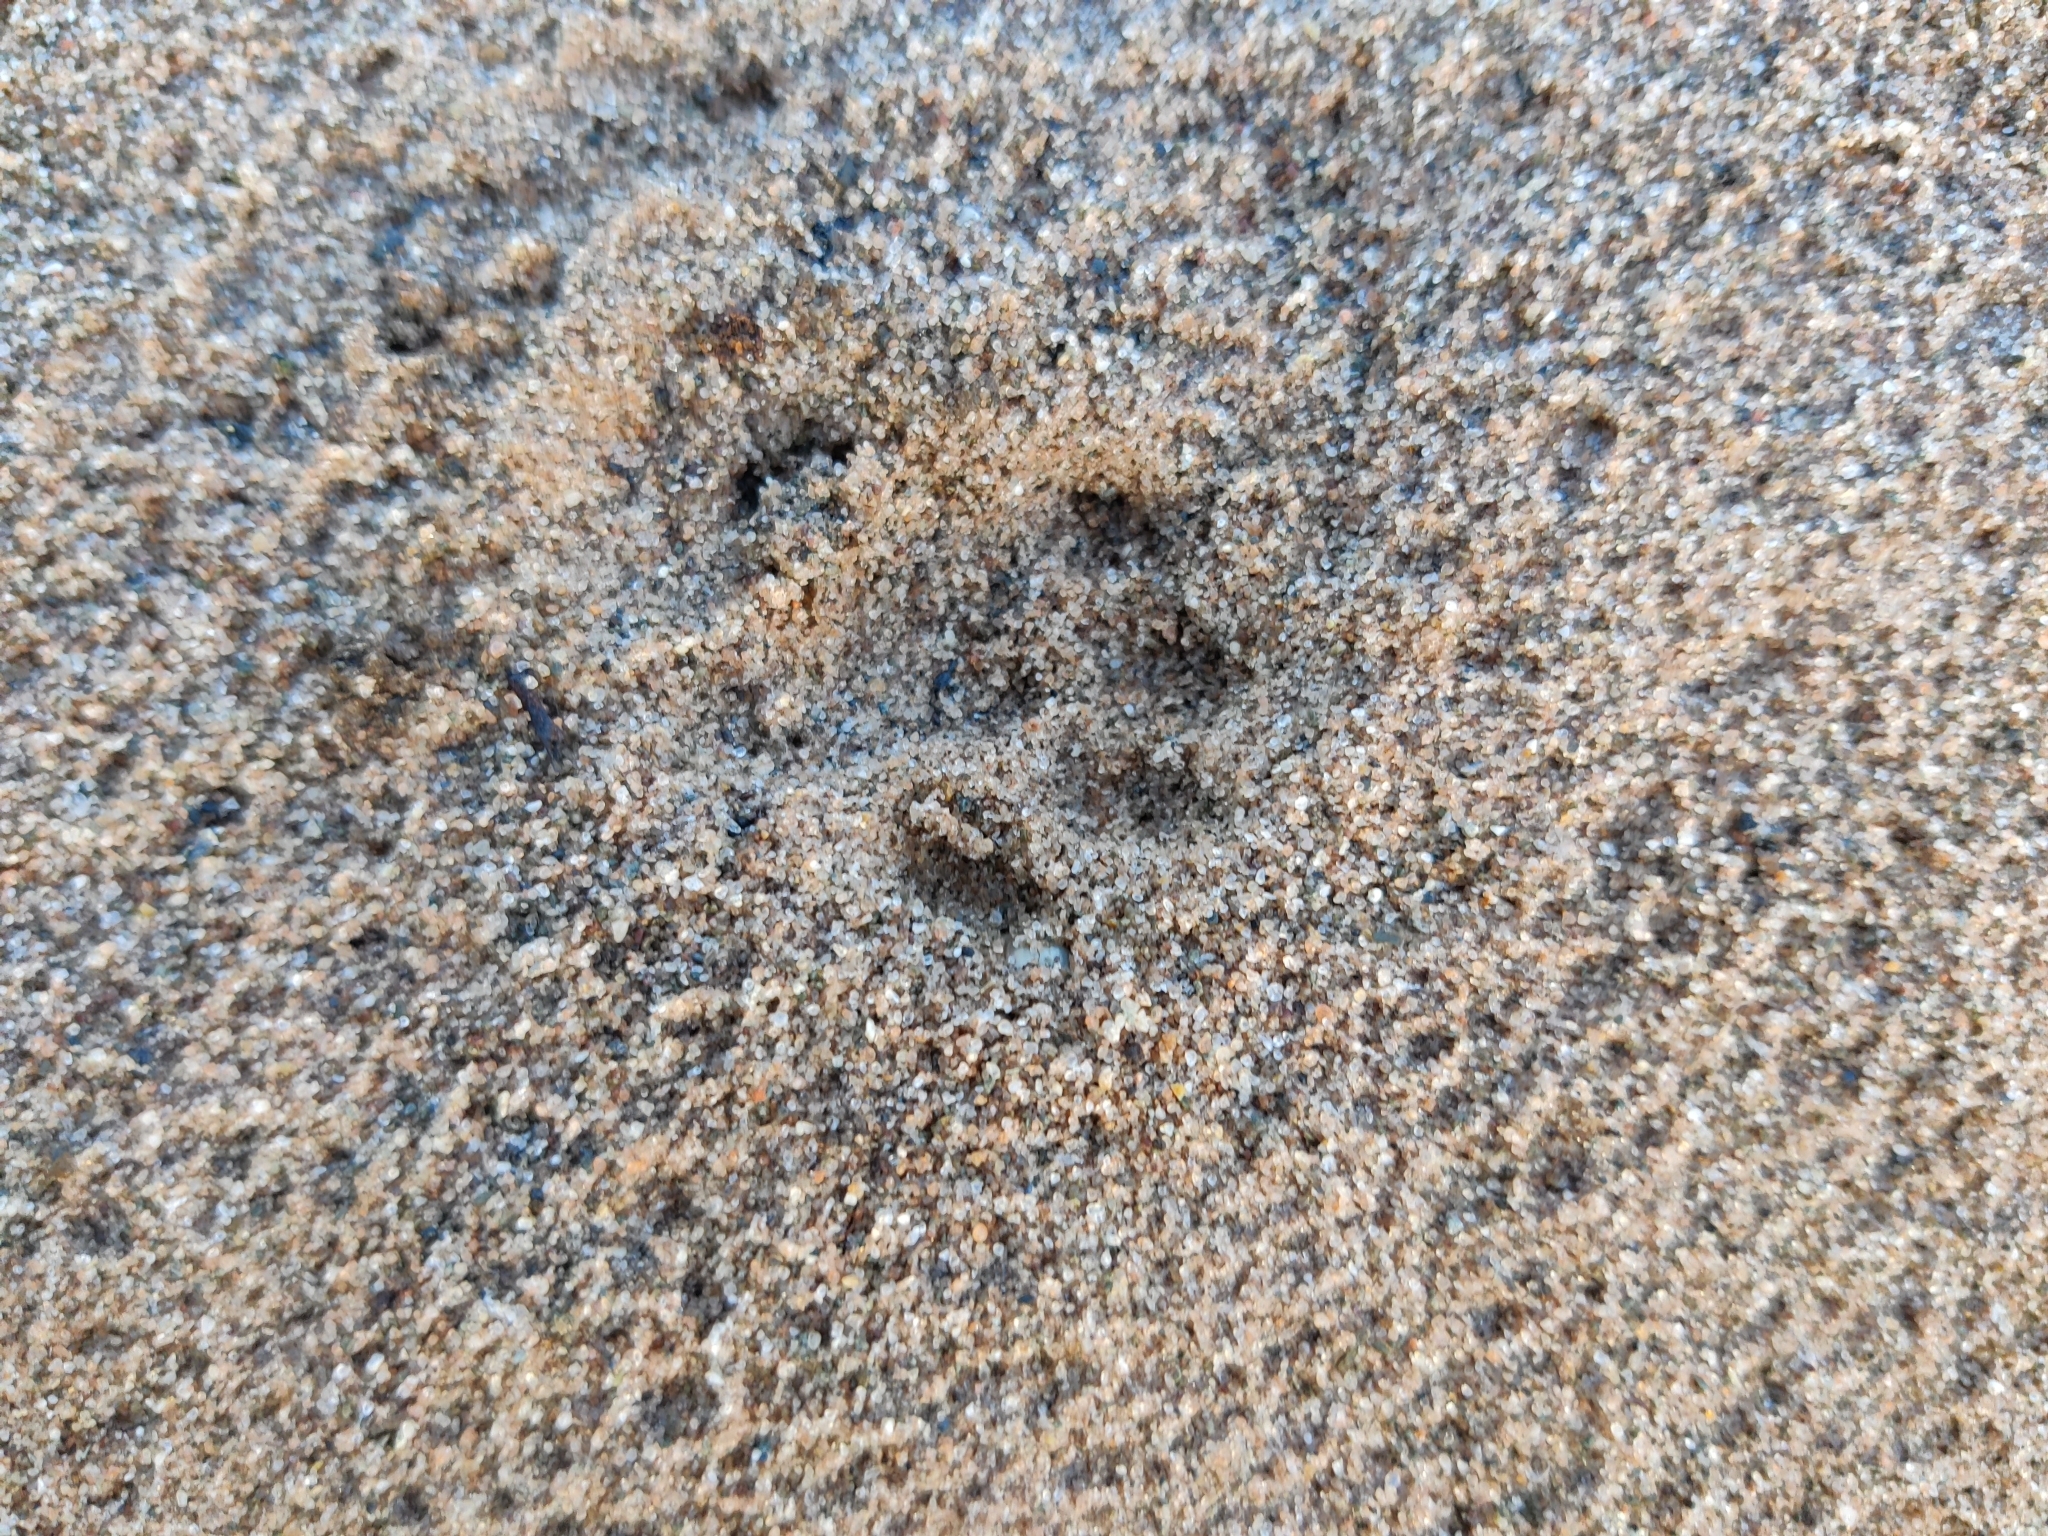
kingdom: Animalia
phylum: Chordata
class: Mammalia
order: Carnivora
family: Felidae
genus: Felis
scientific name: Felis catus
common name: Domestic cat
